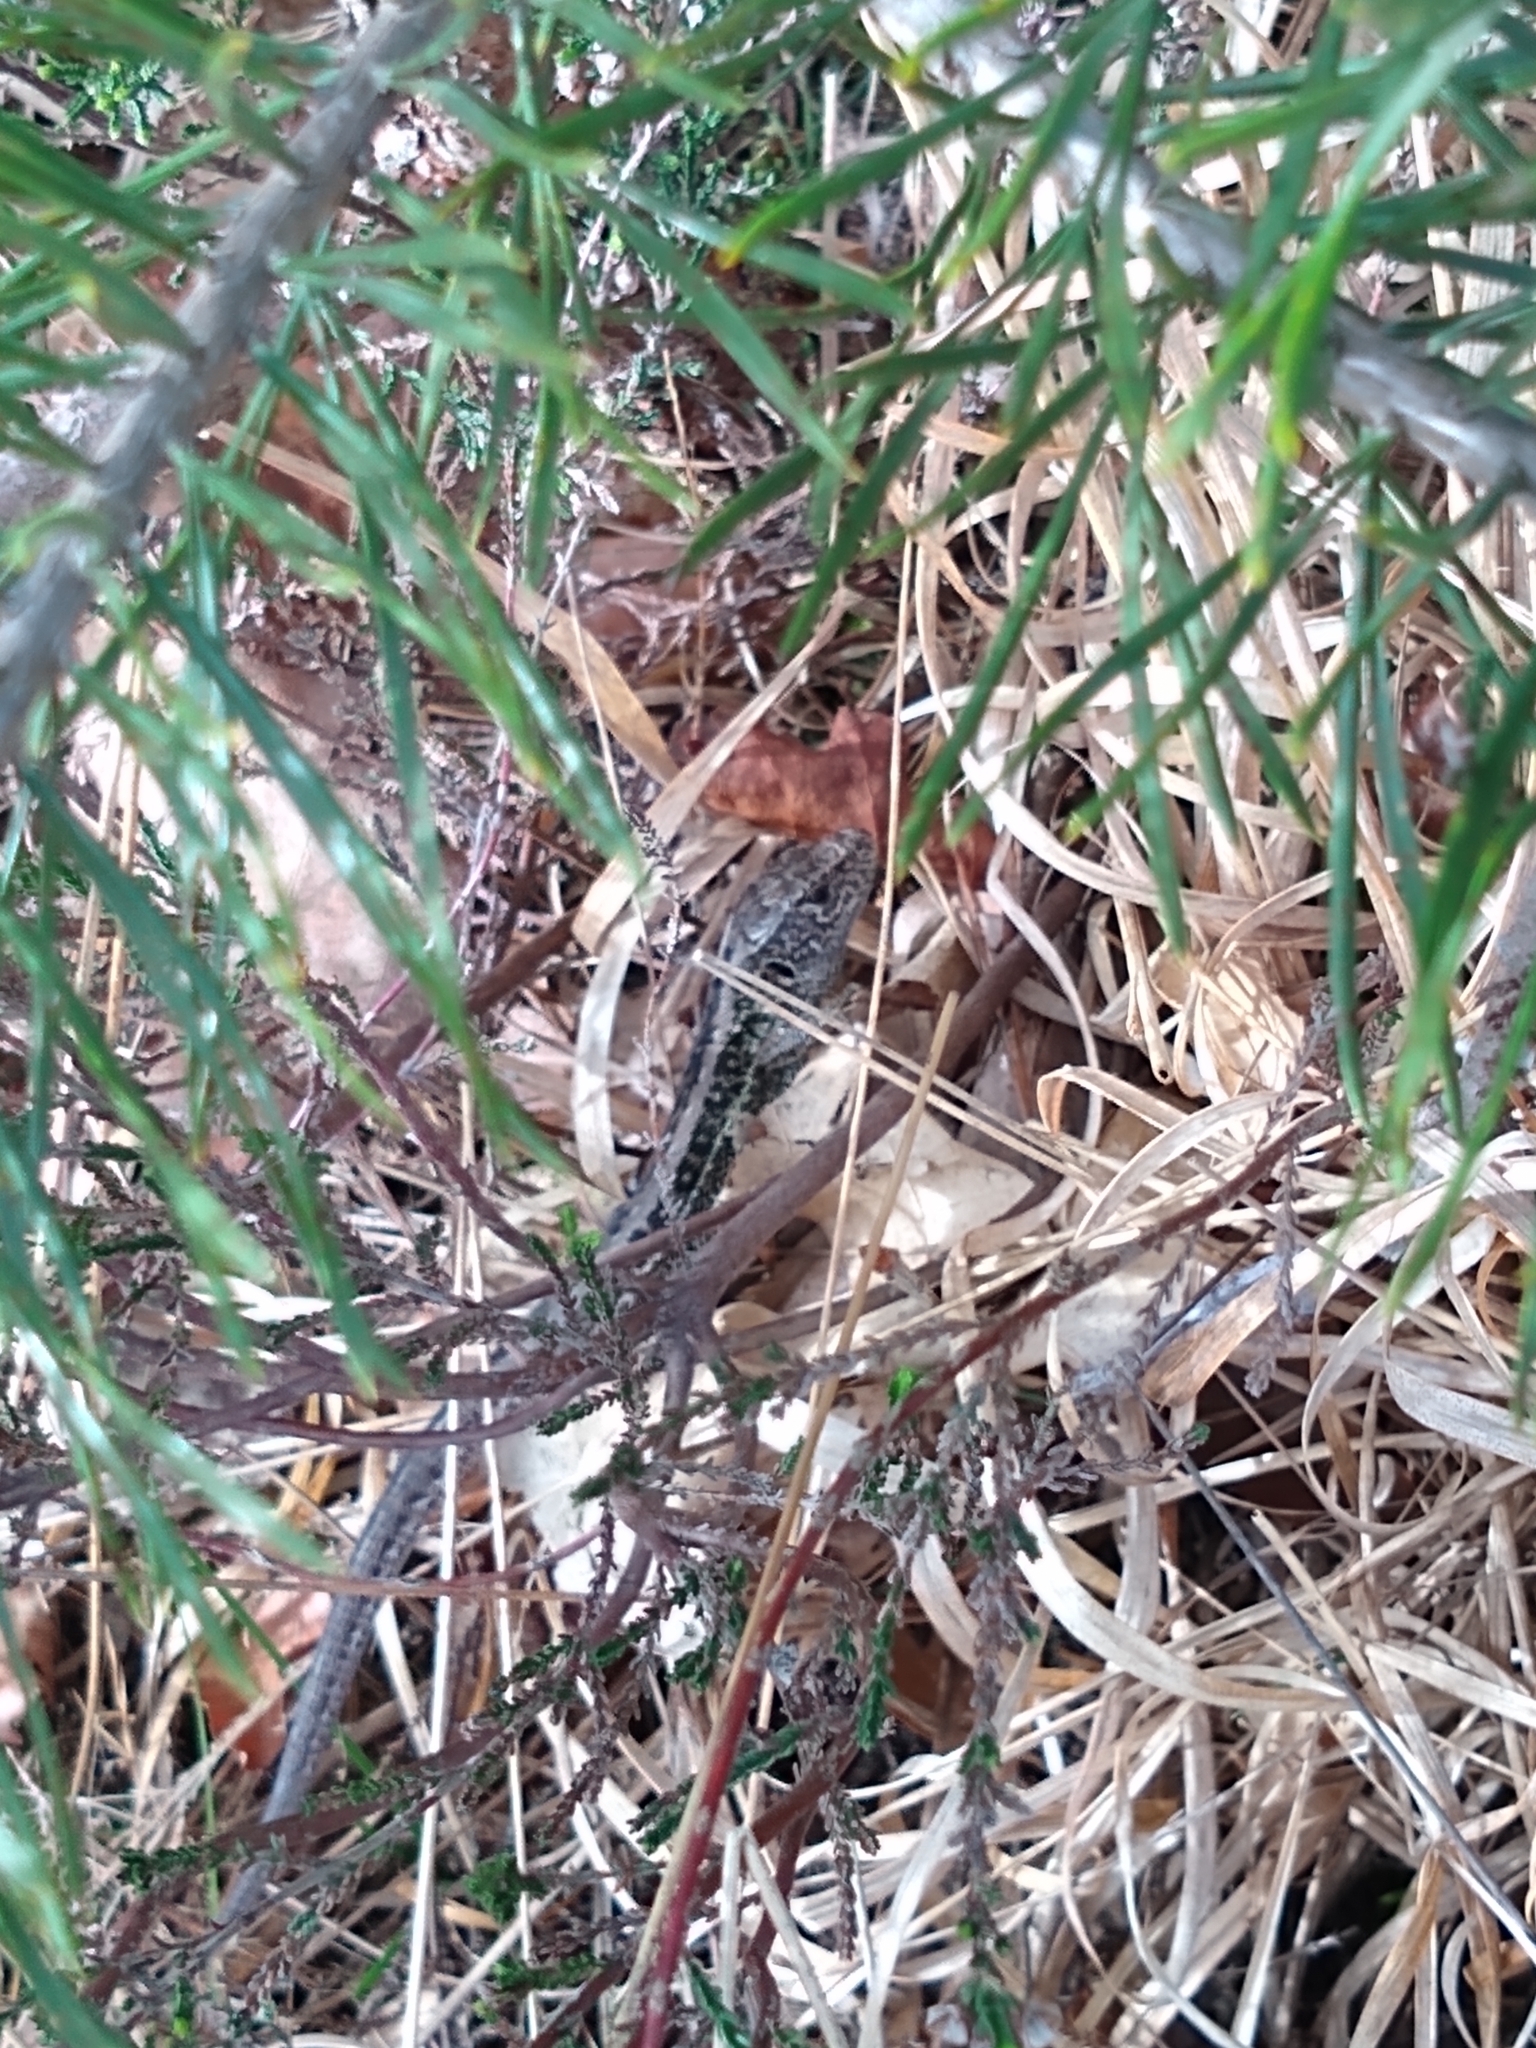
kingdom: Animalia
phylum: Chordata
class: Squamata
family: Lacertidae
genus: Lacerta
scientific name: Lacerta agilis
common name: Sand lizard
